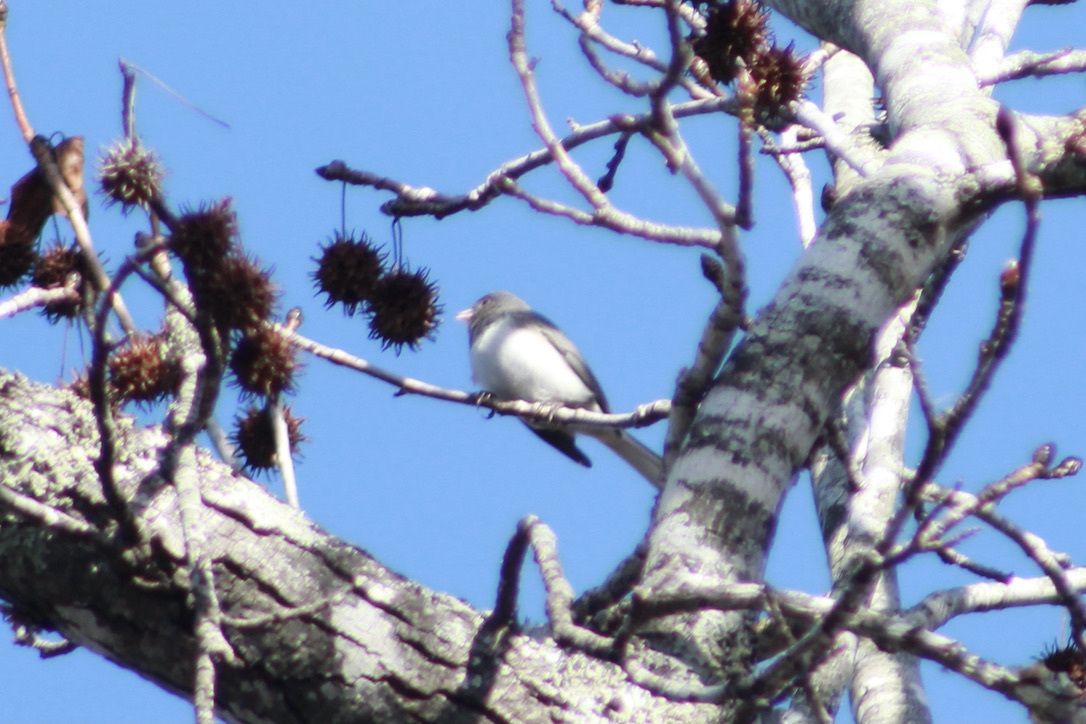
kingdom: Animalia
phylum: Chordata
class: Aves
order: Passeriformes
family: Passerellidae
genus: Junco
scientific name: Junco hyemalis
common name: Dark-eyed junco
